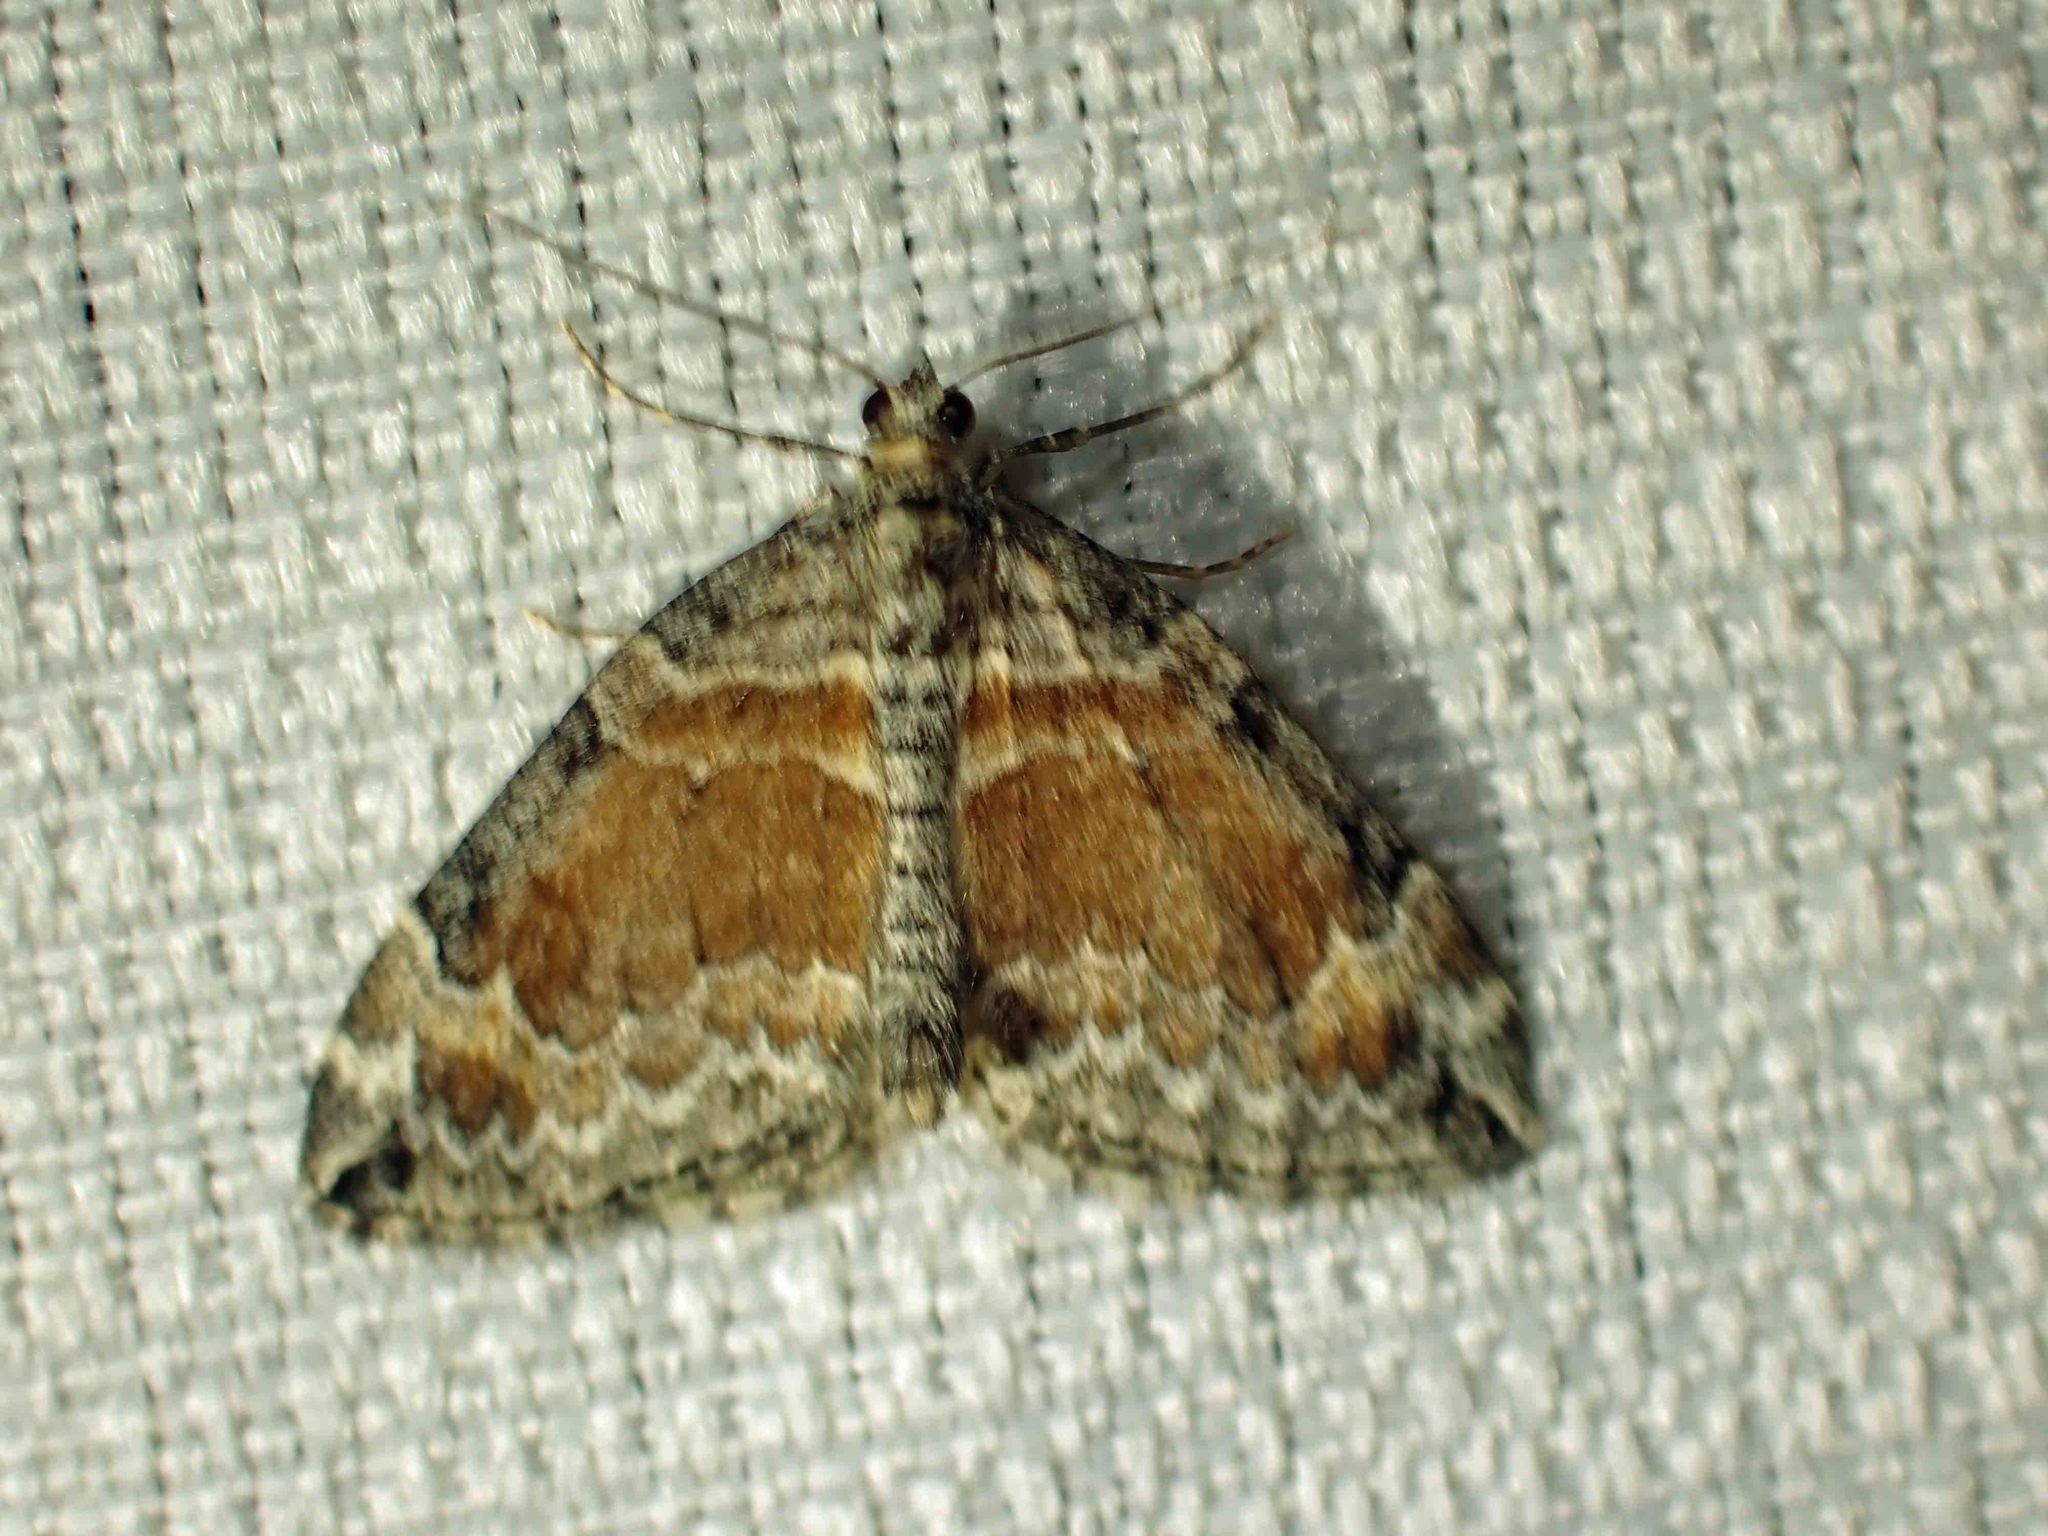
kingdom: Animalia
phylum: Arthropoda
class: Insecta
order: Lepidoptera
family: Geometridae
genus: Dysstroma
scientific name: Dysstroma hersiliata
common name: Orange-barred carpet
